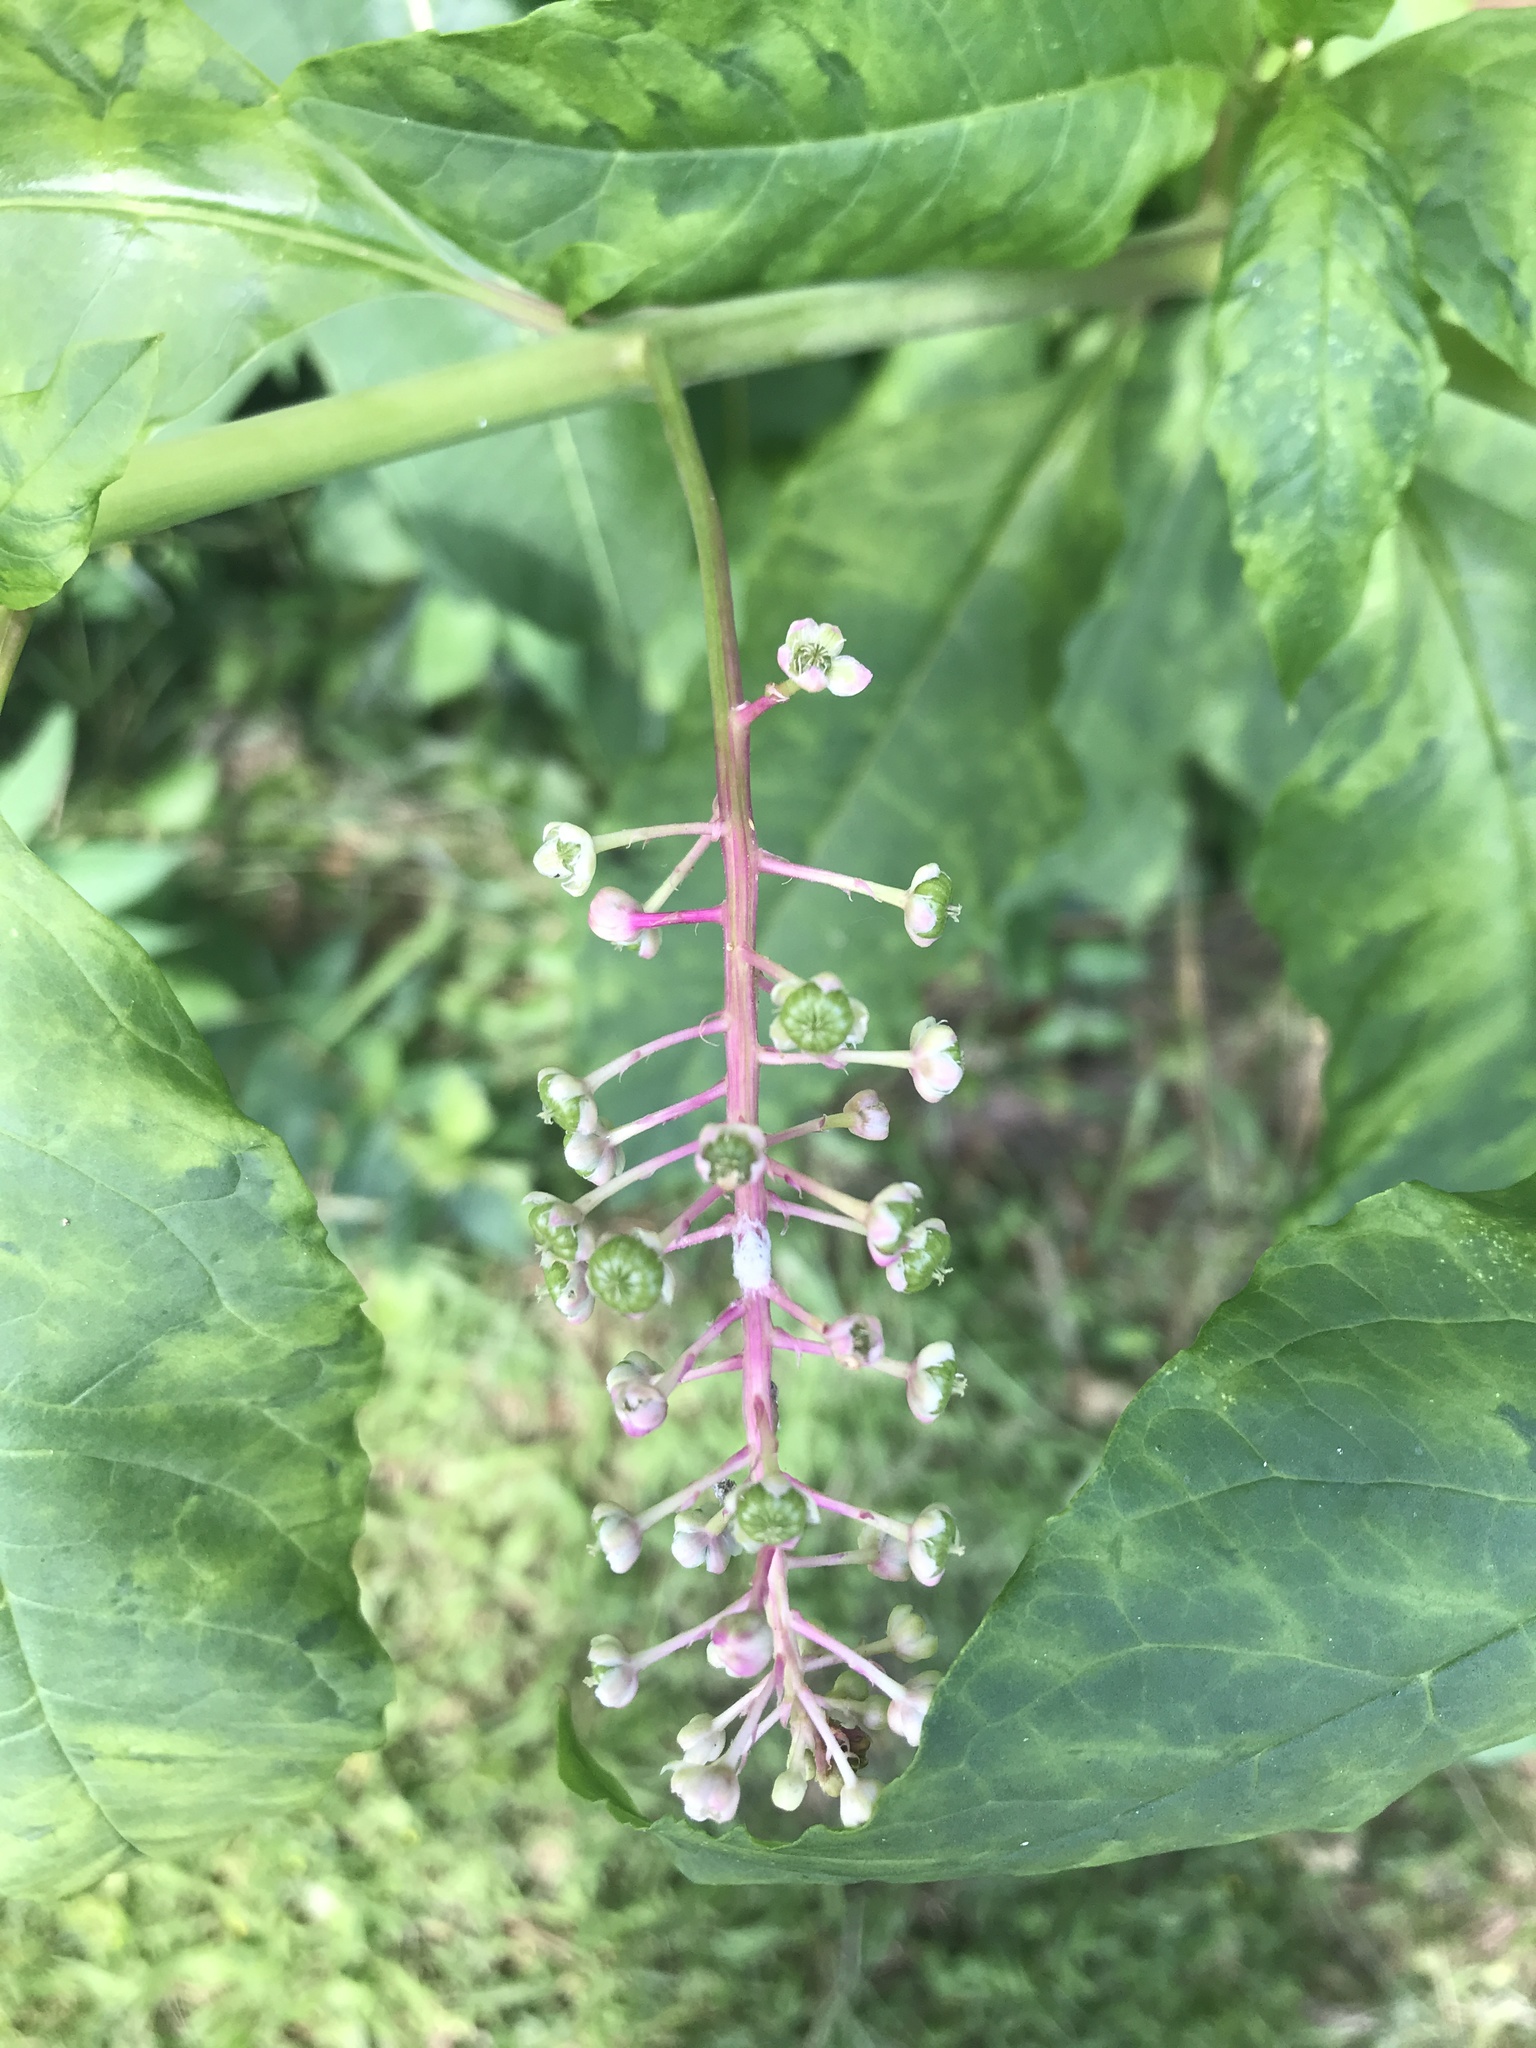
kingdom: Plantae
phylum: Tracheophyta
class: Magnoliopsida
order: Caryophyllales
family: Phytolaccaceae
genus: Phytolacca
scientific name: Phytolacca americana
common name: American pokeweed
